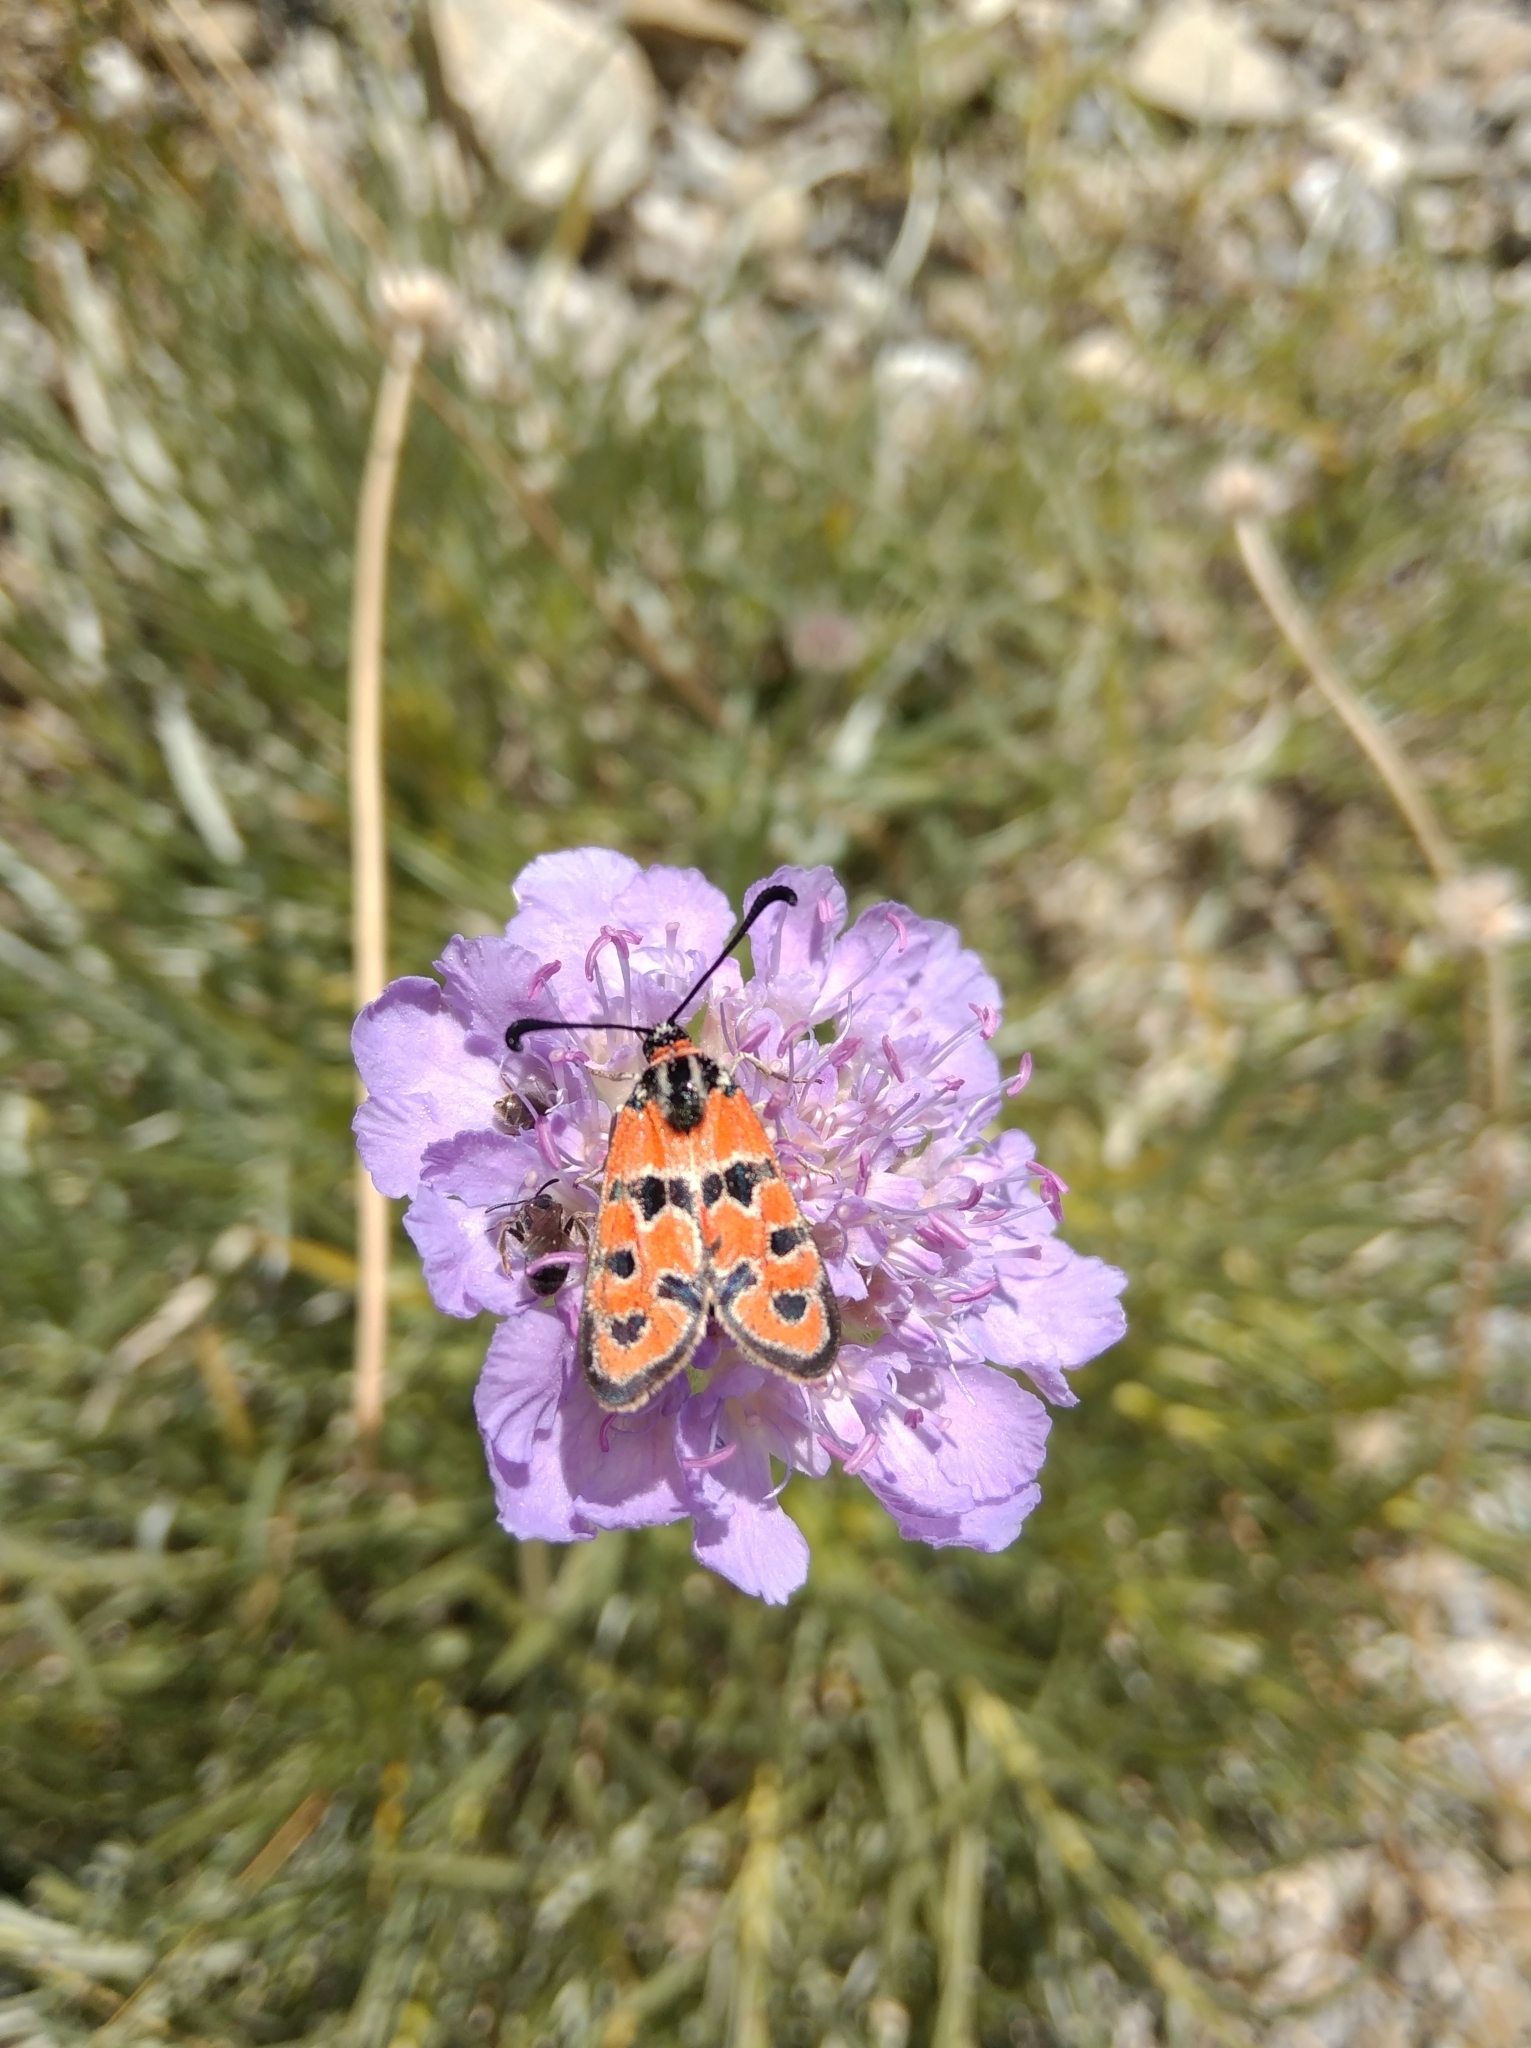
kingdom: Animalia
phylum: Arthropoda
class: Insecta
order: Lepidoptera
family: Zygaenidae
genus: Zygaena
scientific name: Zygaena fausta
